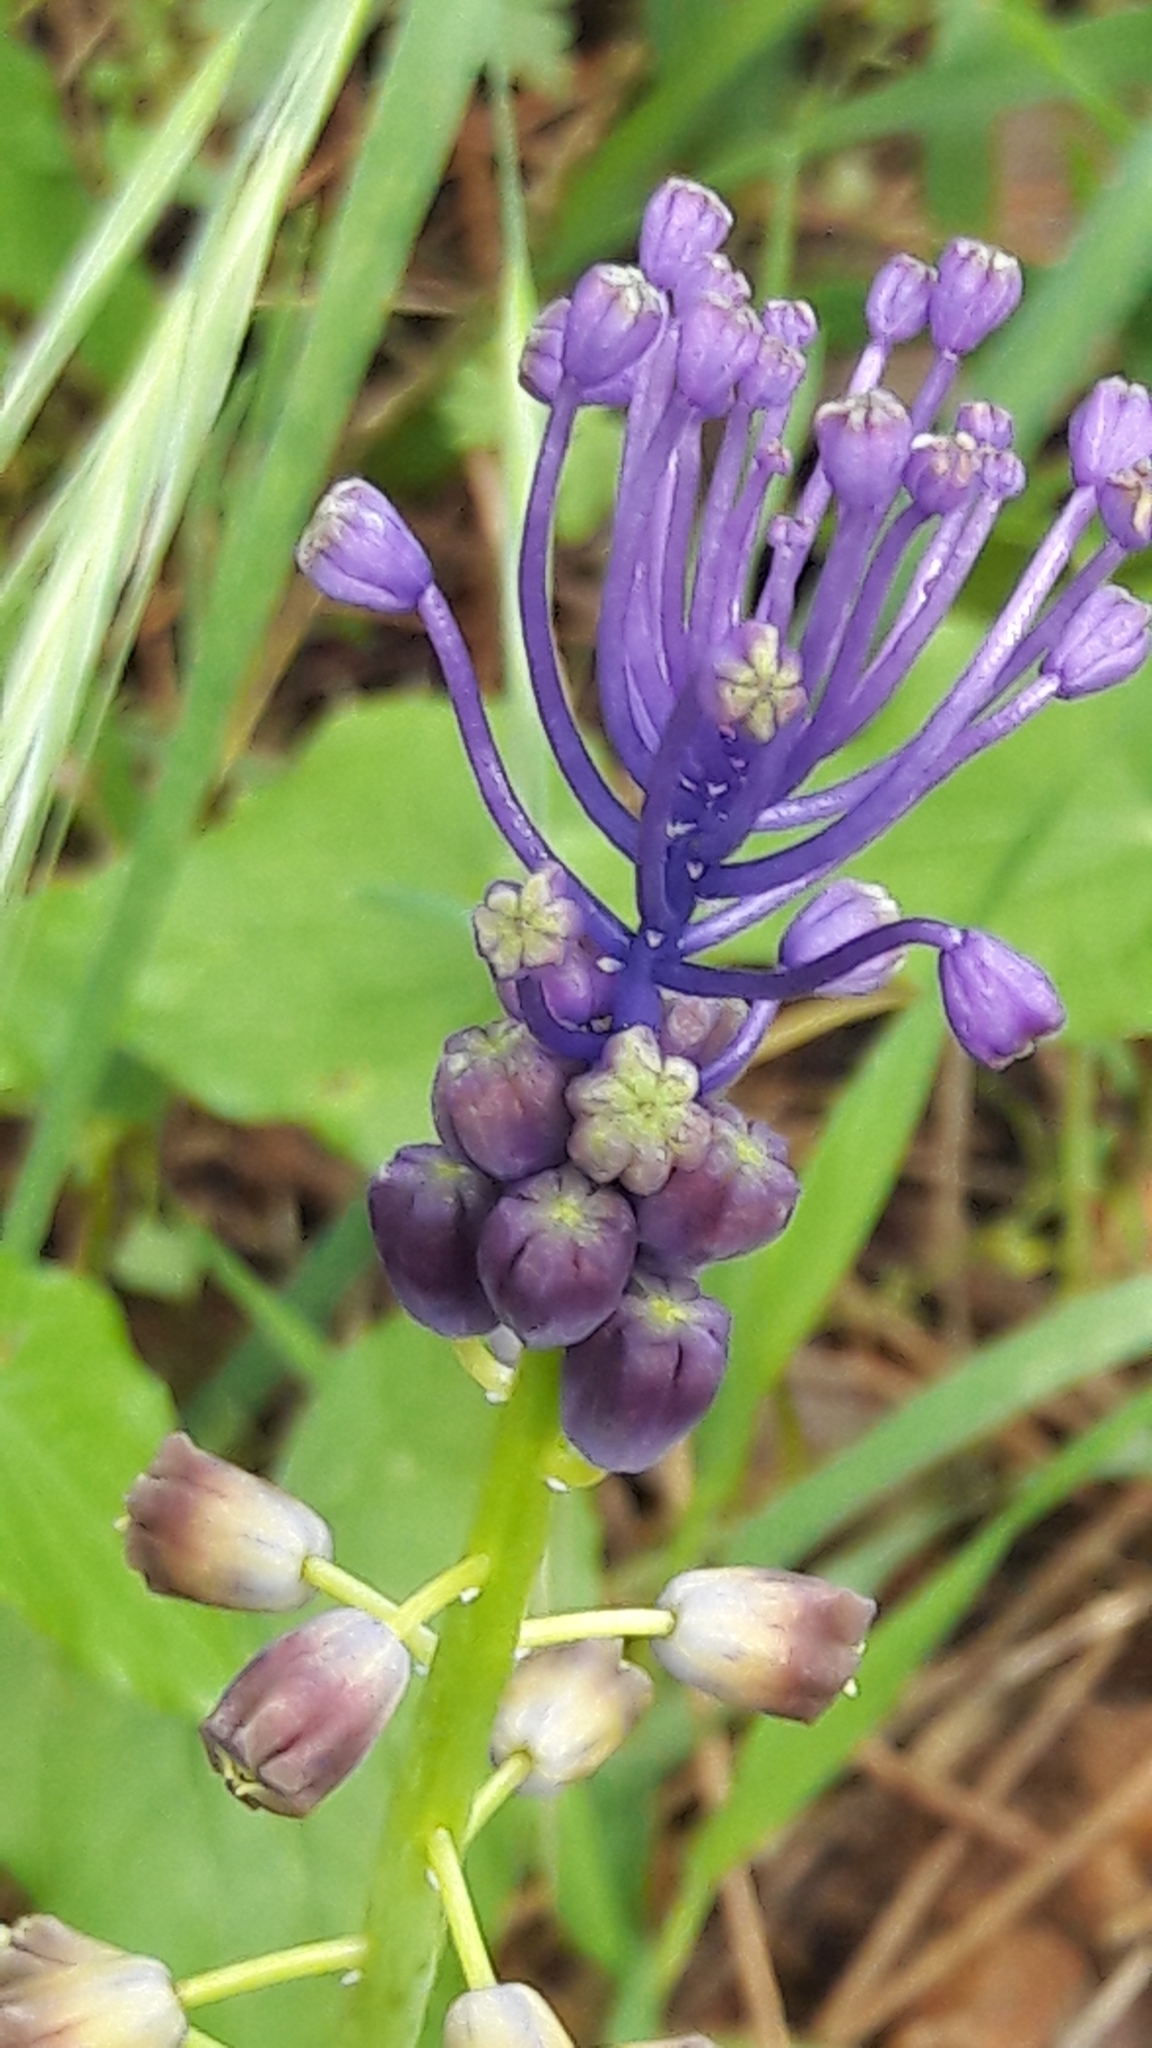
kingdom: Plantae
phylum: Tracheophyta
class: Liliopsida
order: Asparagales
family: Asparagaceae
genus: Muscari
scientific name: Muscari comosum
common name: Tassel hyacinth
